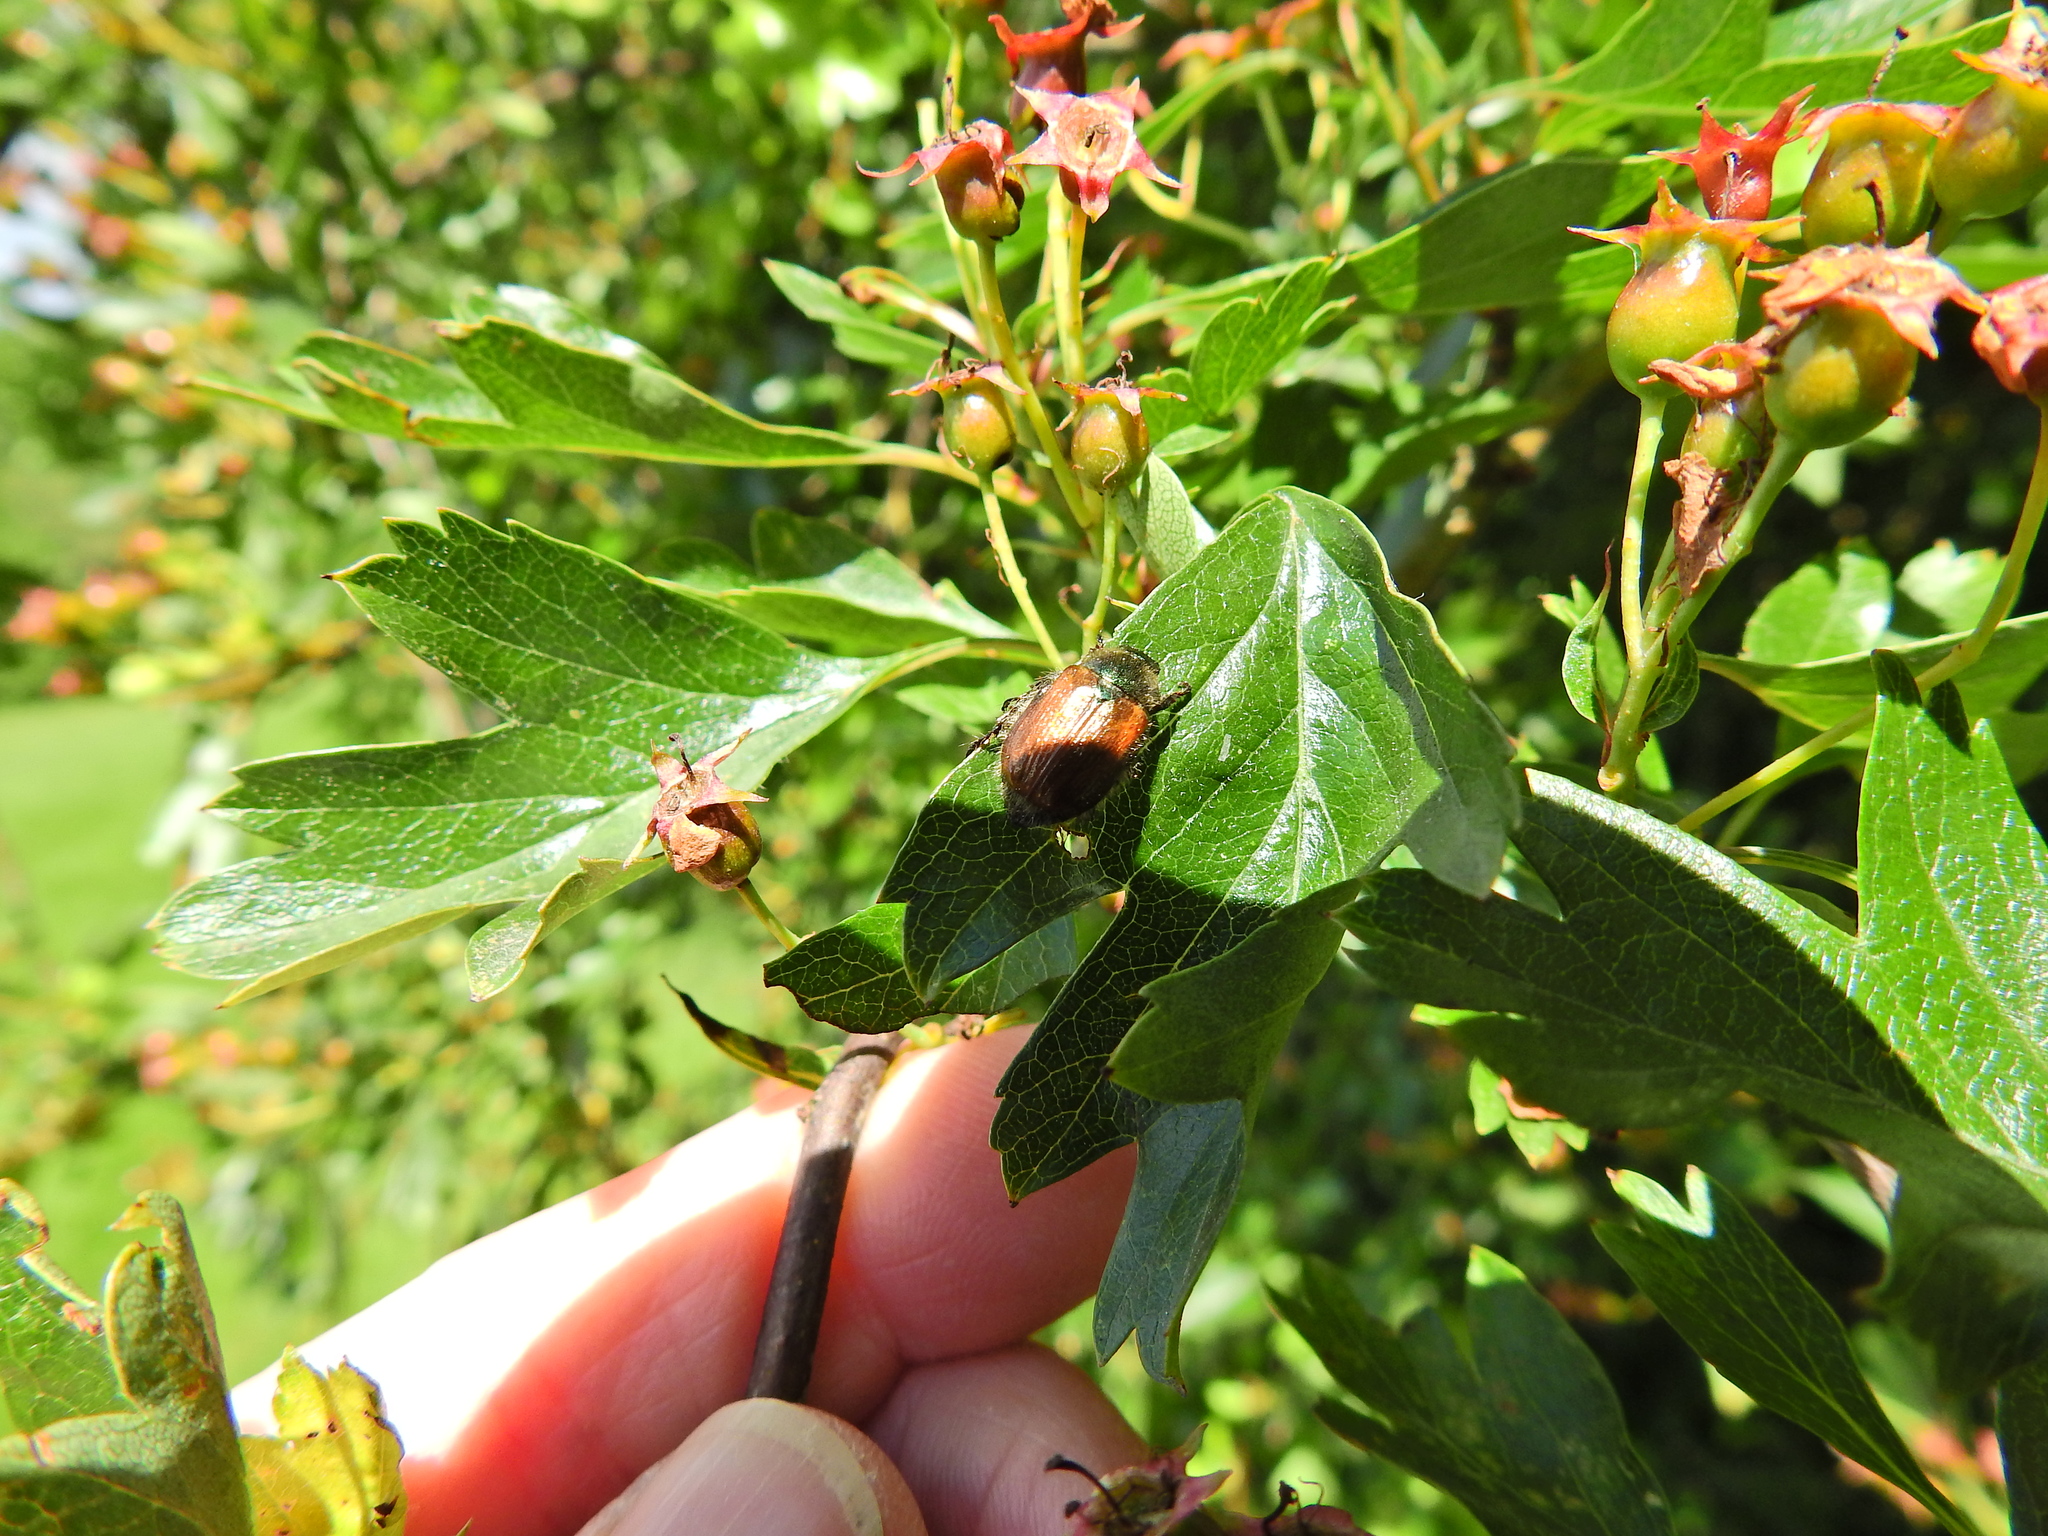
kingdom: Animalia
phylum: Arthropoda
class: Insecta
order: Coleoptera
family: Scarabaeidae
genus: Phyllopertha
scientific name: Phyllopertha horticola
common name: Garden chafer
